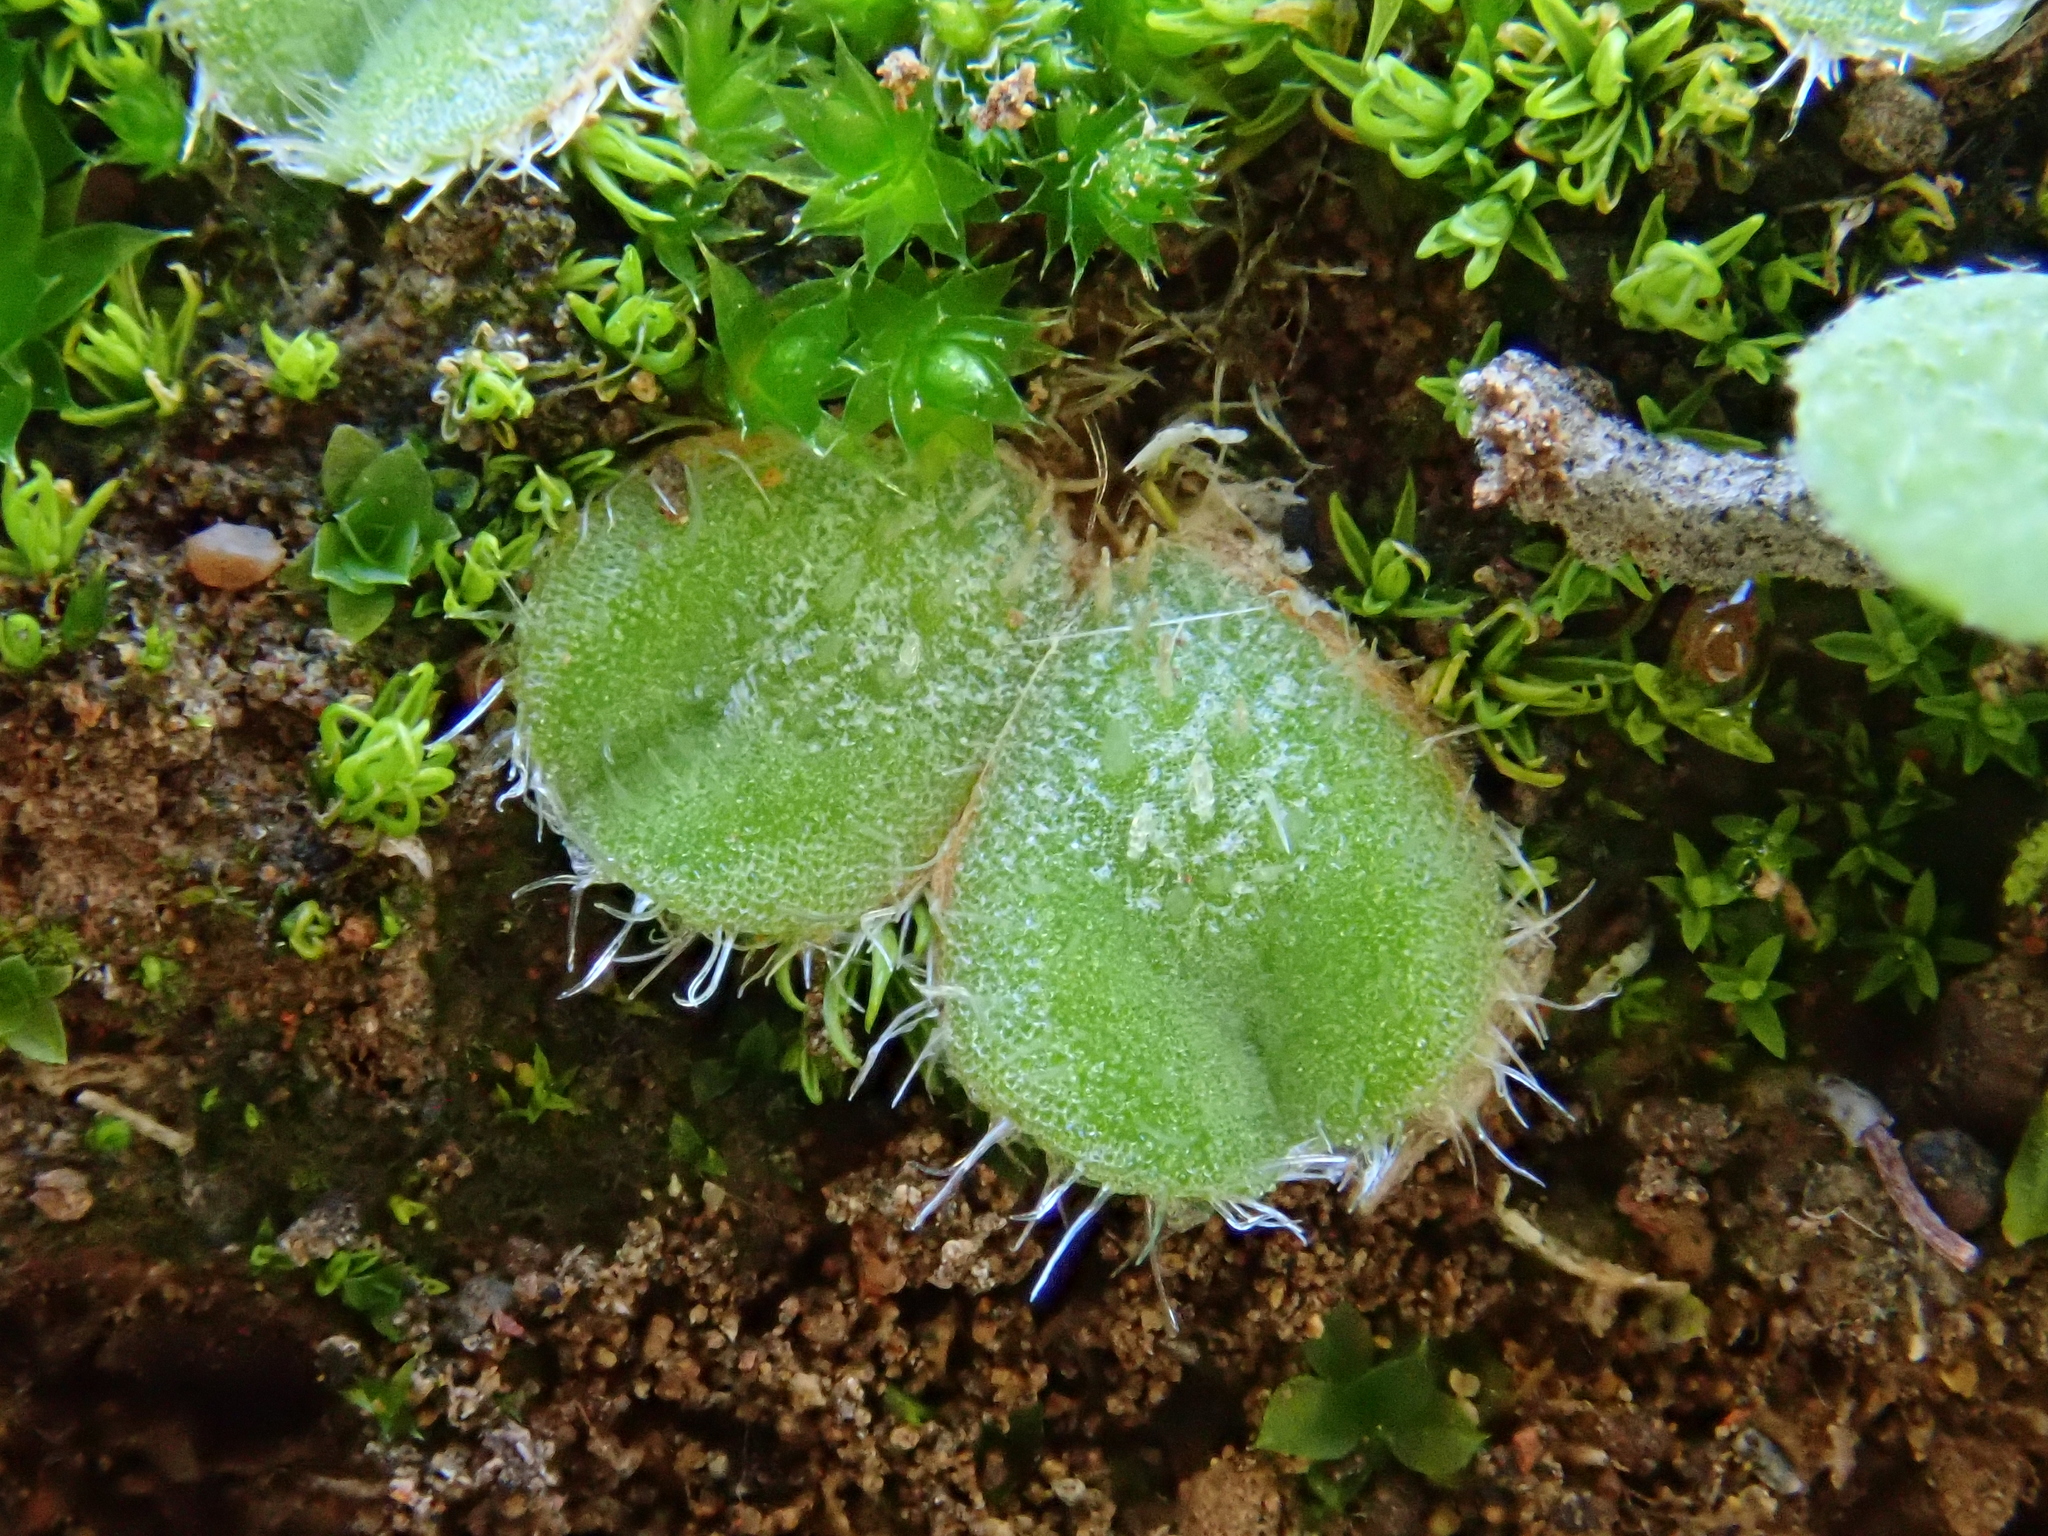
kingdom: Plantae
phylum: Marchantiophyta
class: Marchantiopsida
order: Marchantiales
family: Ricciaceae
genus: Riccia
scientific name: Riccia gougetiana
